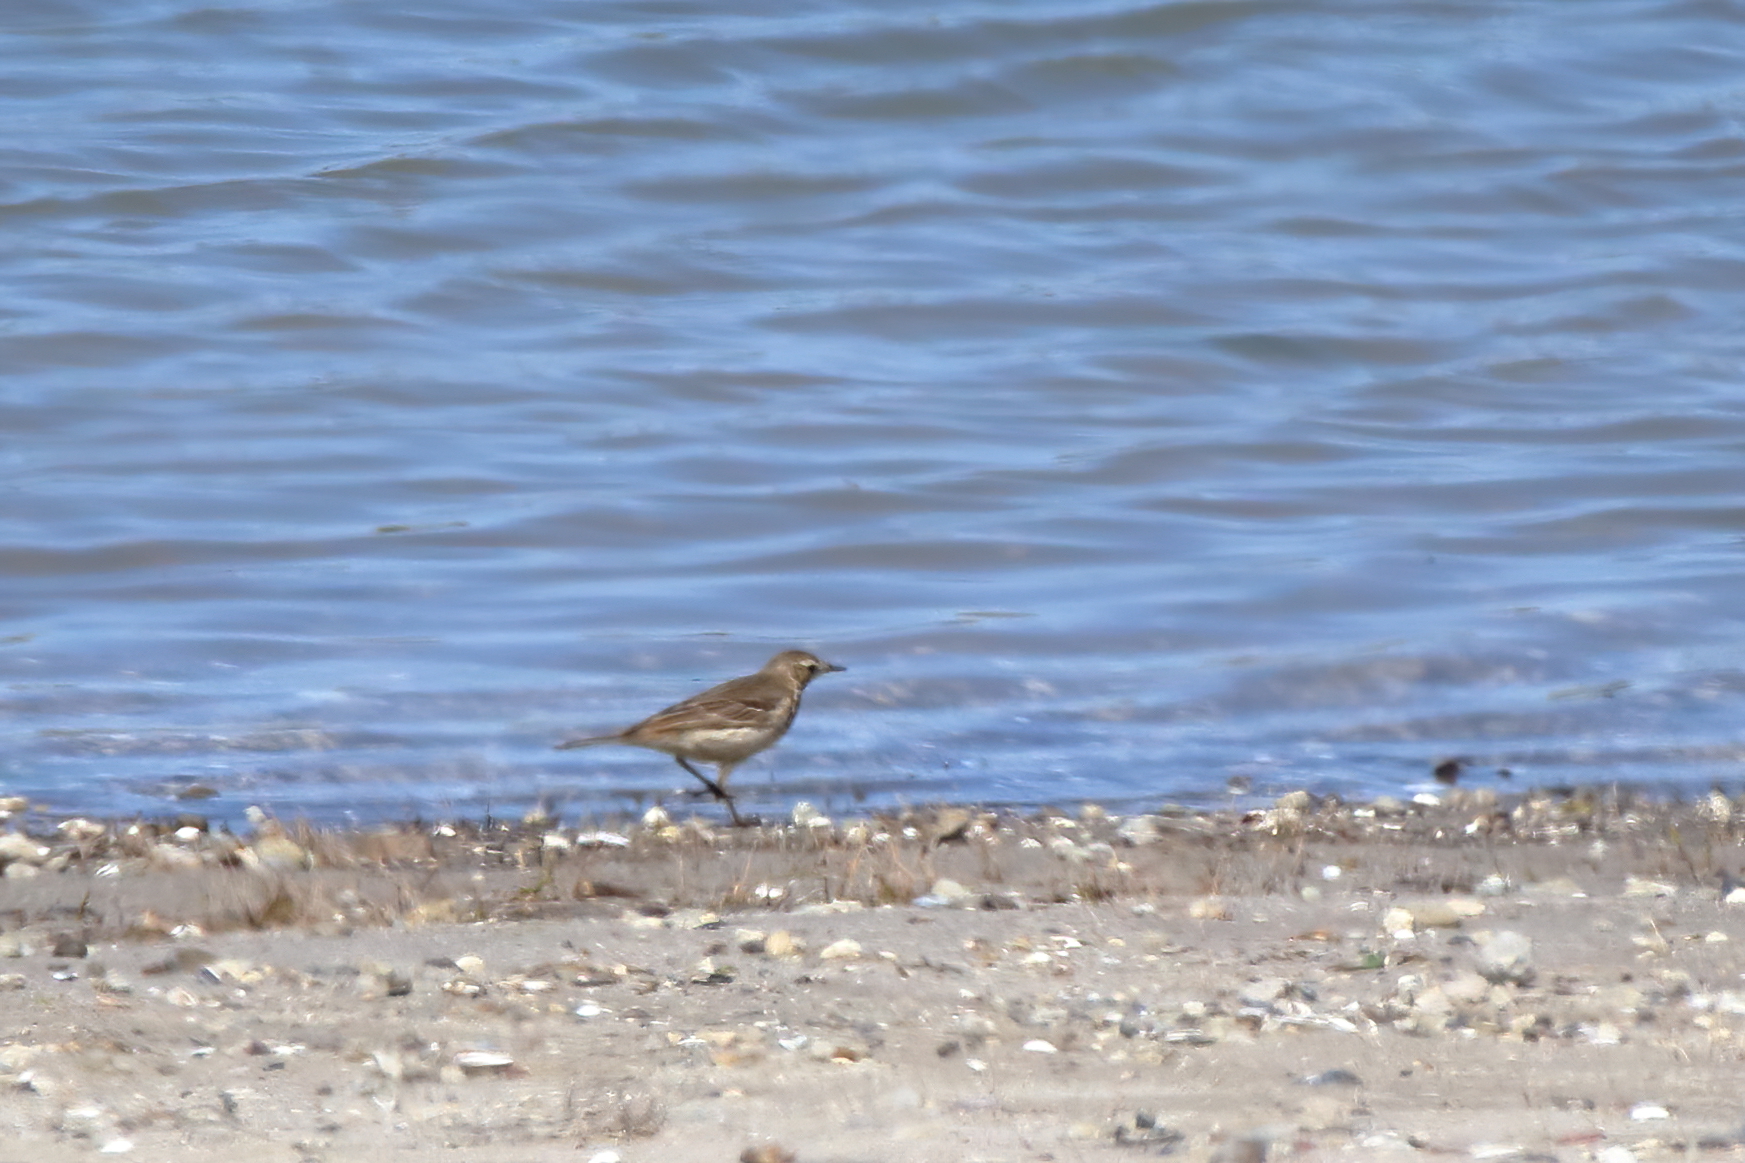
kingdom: Animalia
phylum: Chordata
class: Aves
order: Passeriformes
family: Motacillidae
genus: Anthus
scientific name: Anthus rubescens
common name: Buff-bellied pipit
